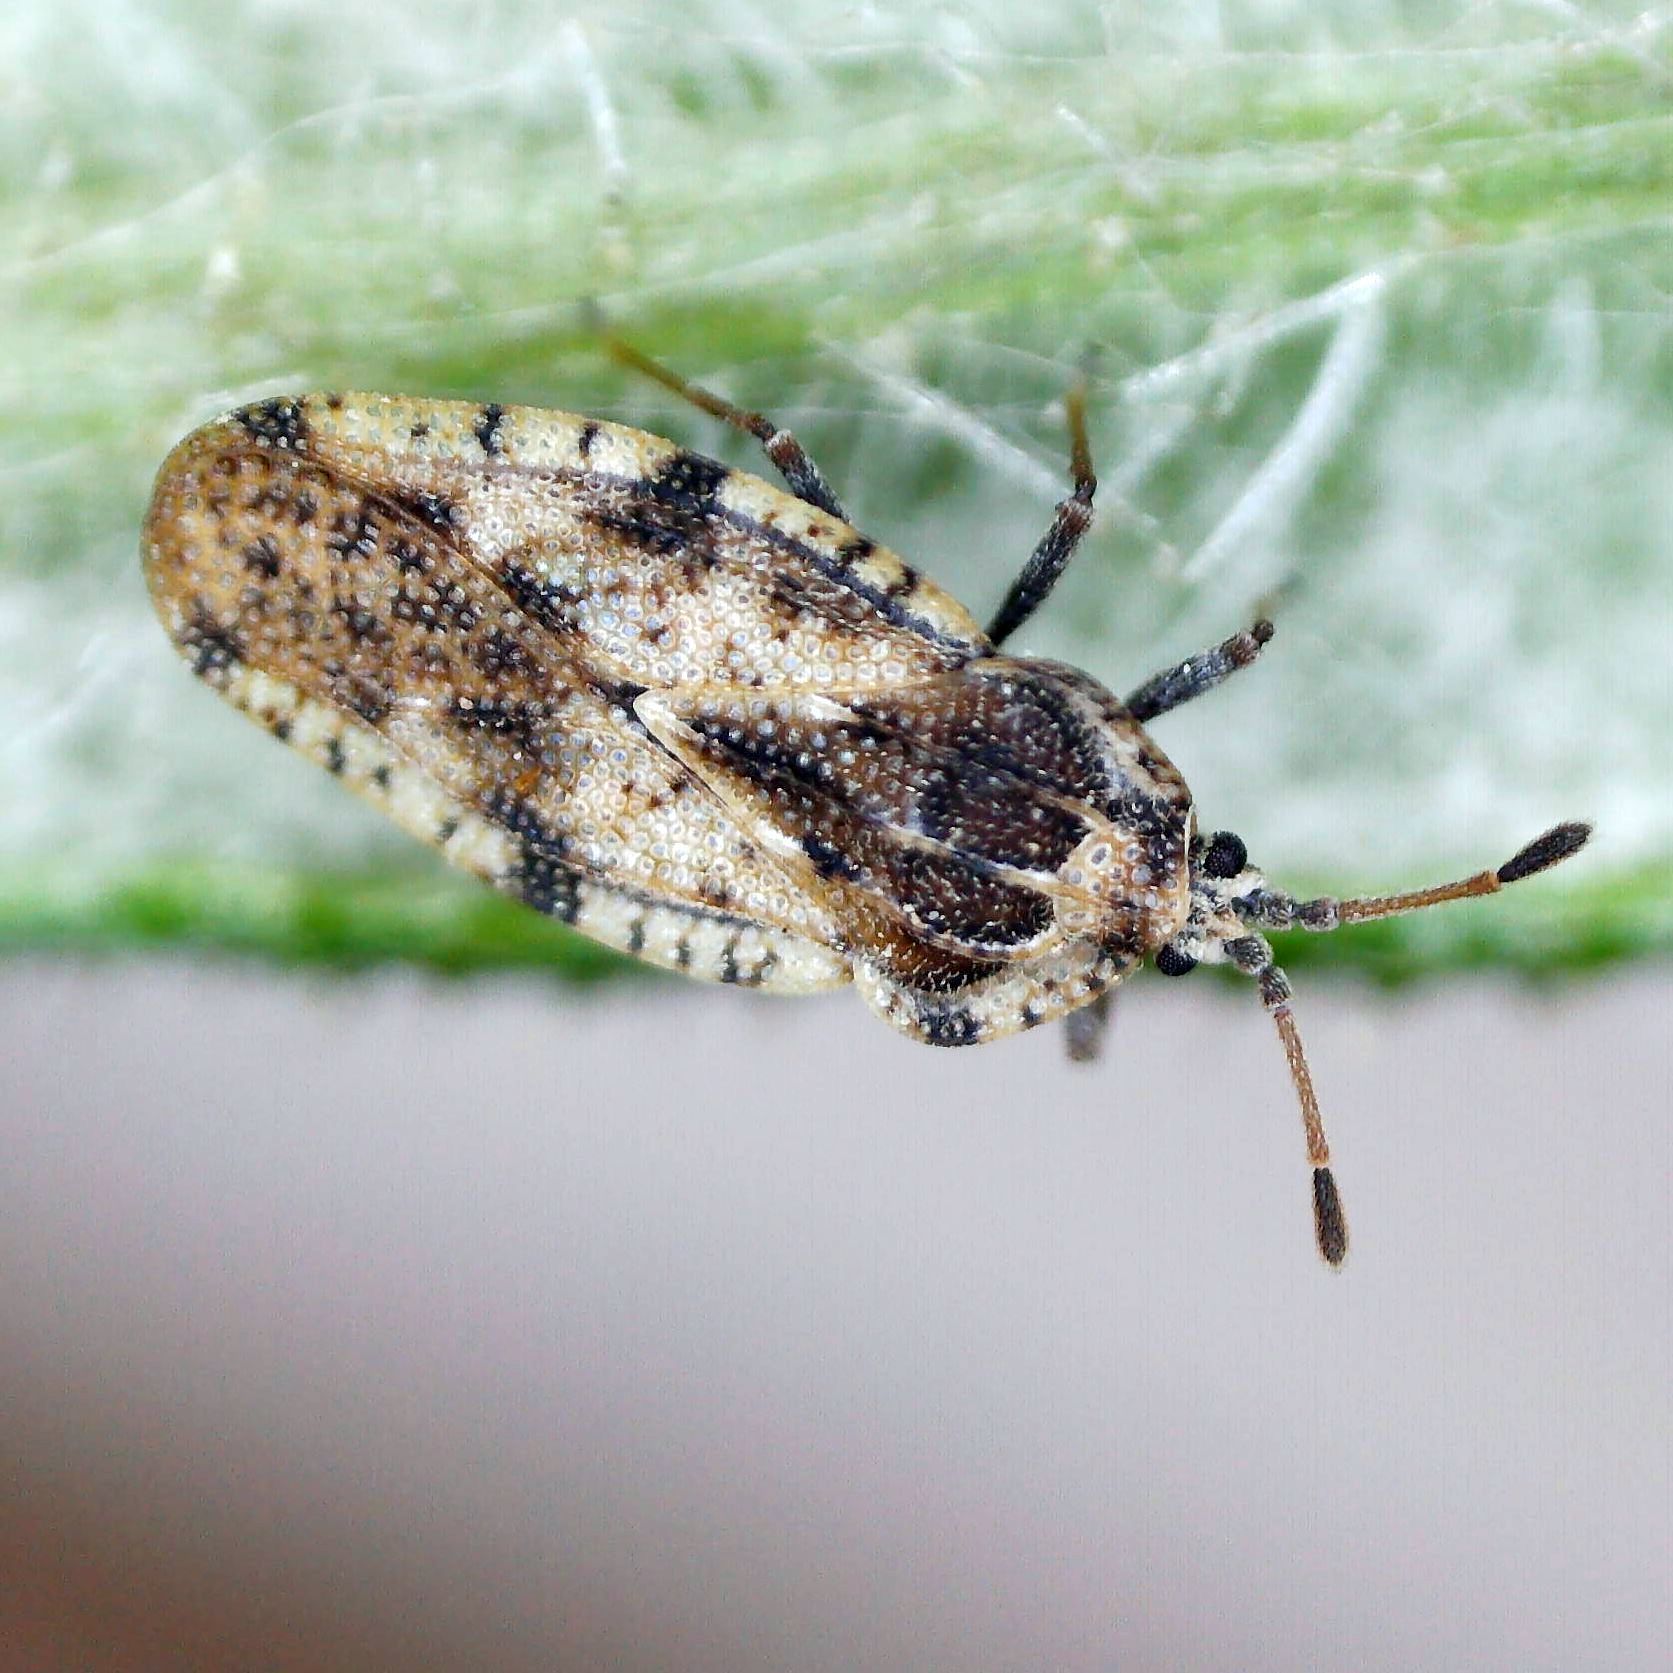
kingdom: Animalia
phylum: Arthropoda
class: Insecta
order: Hemiptera
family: Tingidae
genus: Tingis
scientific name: Tingis cardui
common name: Spear thistle lacebug
